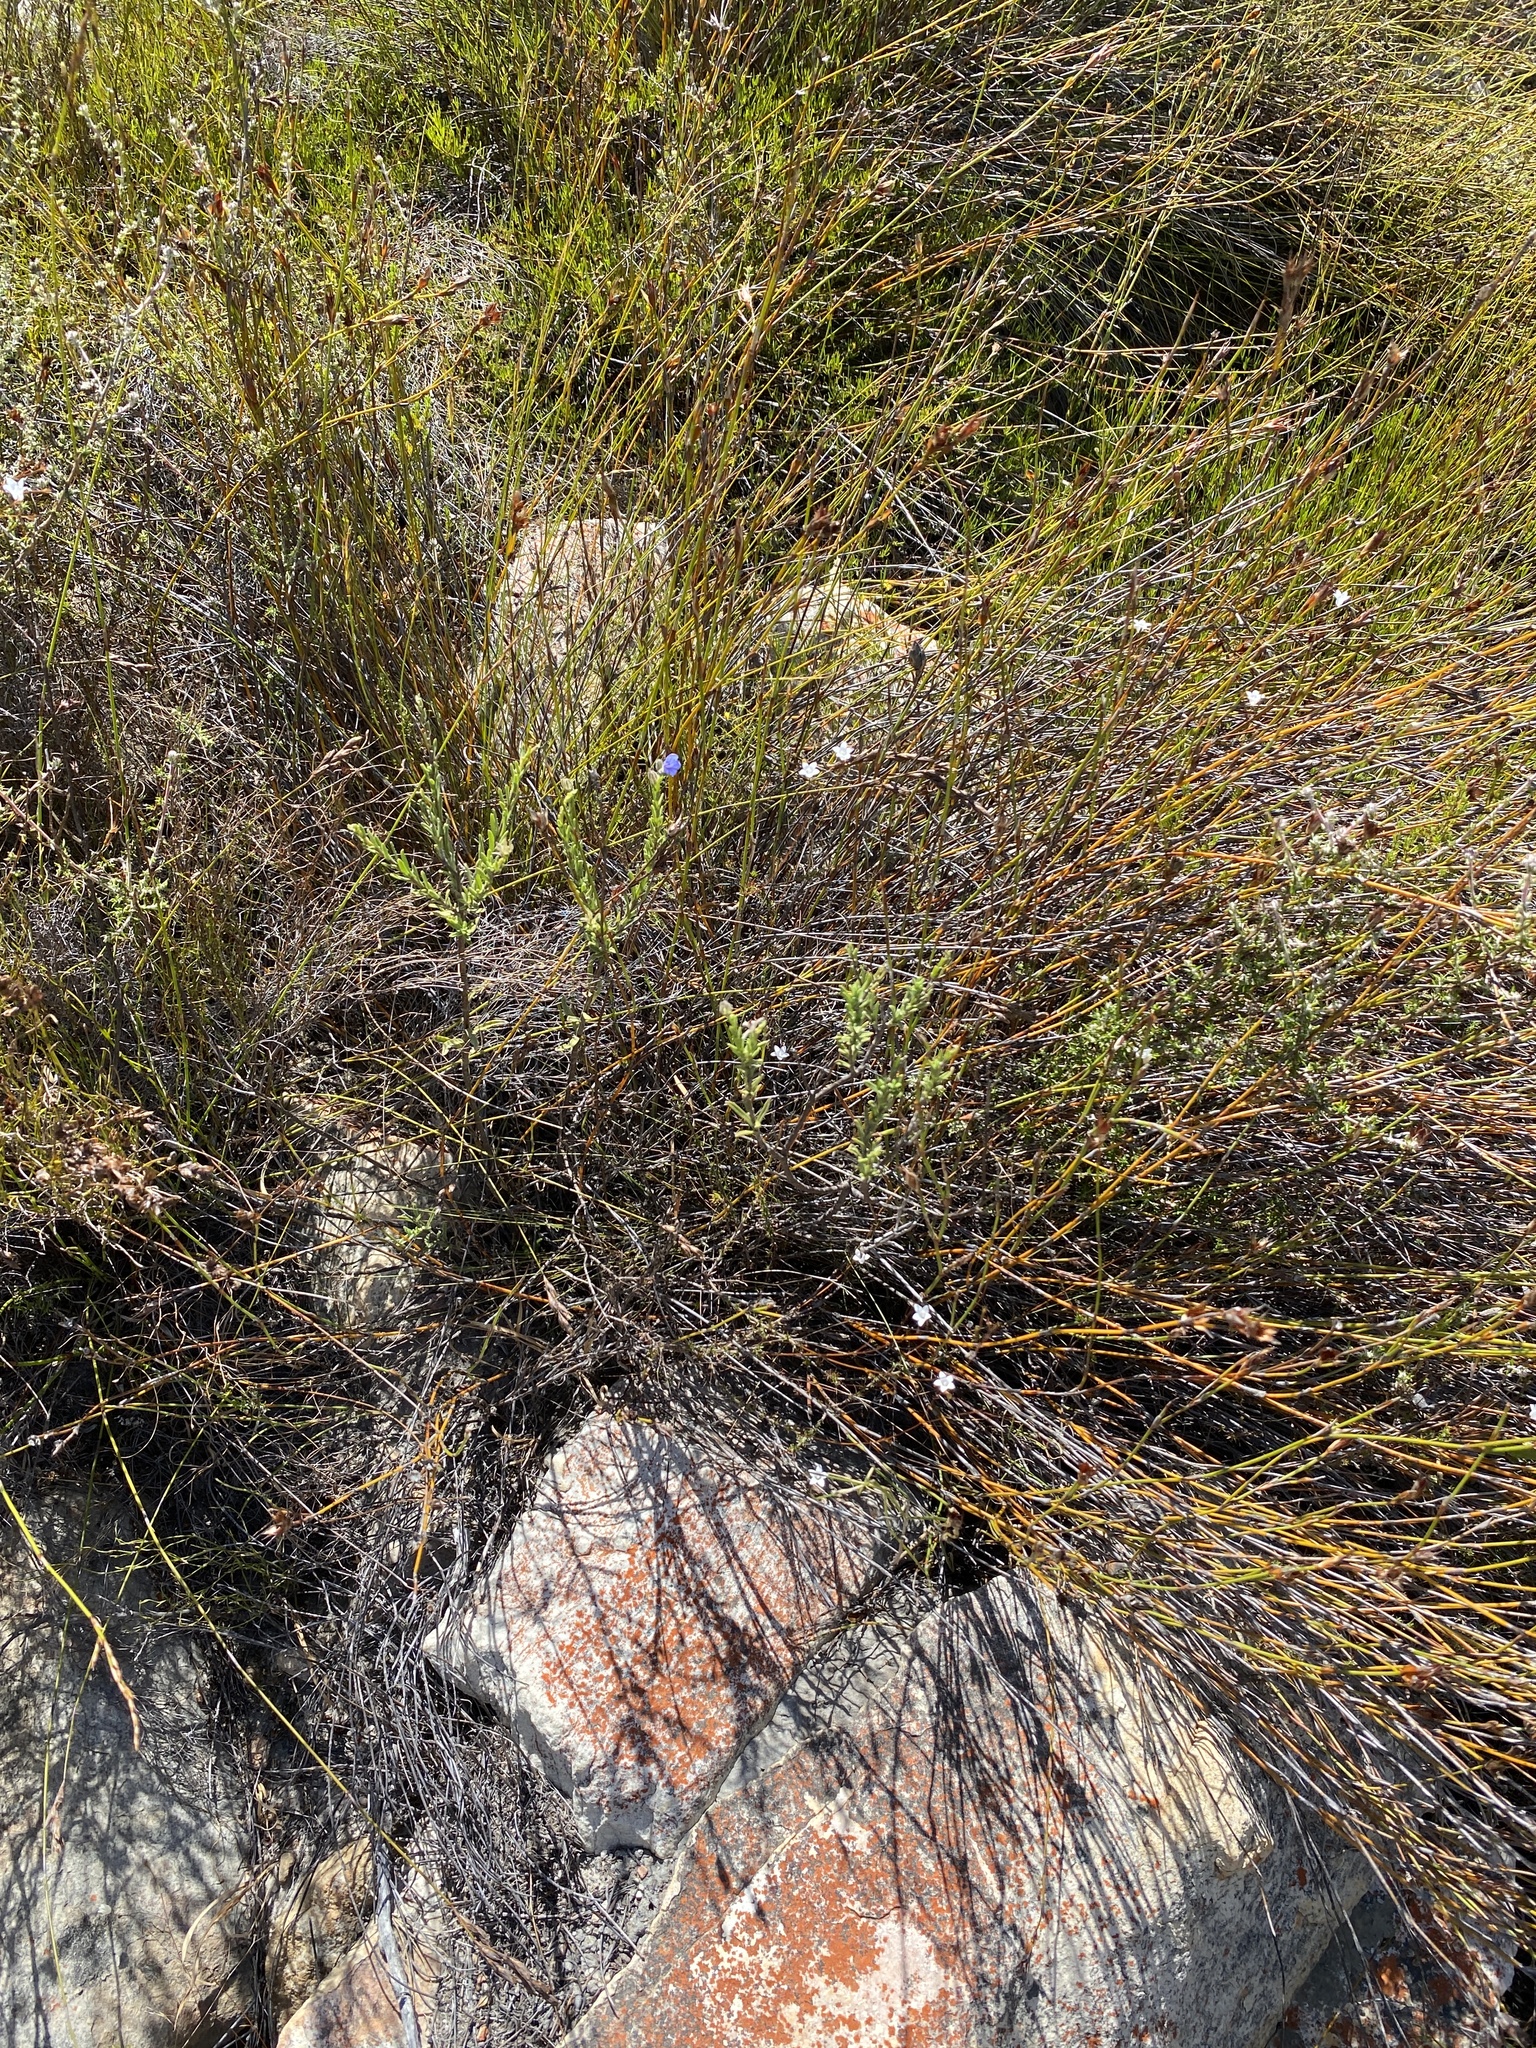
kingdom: Plantae
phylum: Tracheophyta
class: Magnoliopsida
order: Boraginales
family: Boraginaceae
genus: Lobostemon
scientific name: Lobostemon trichotomus
